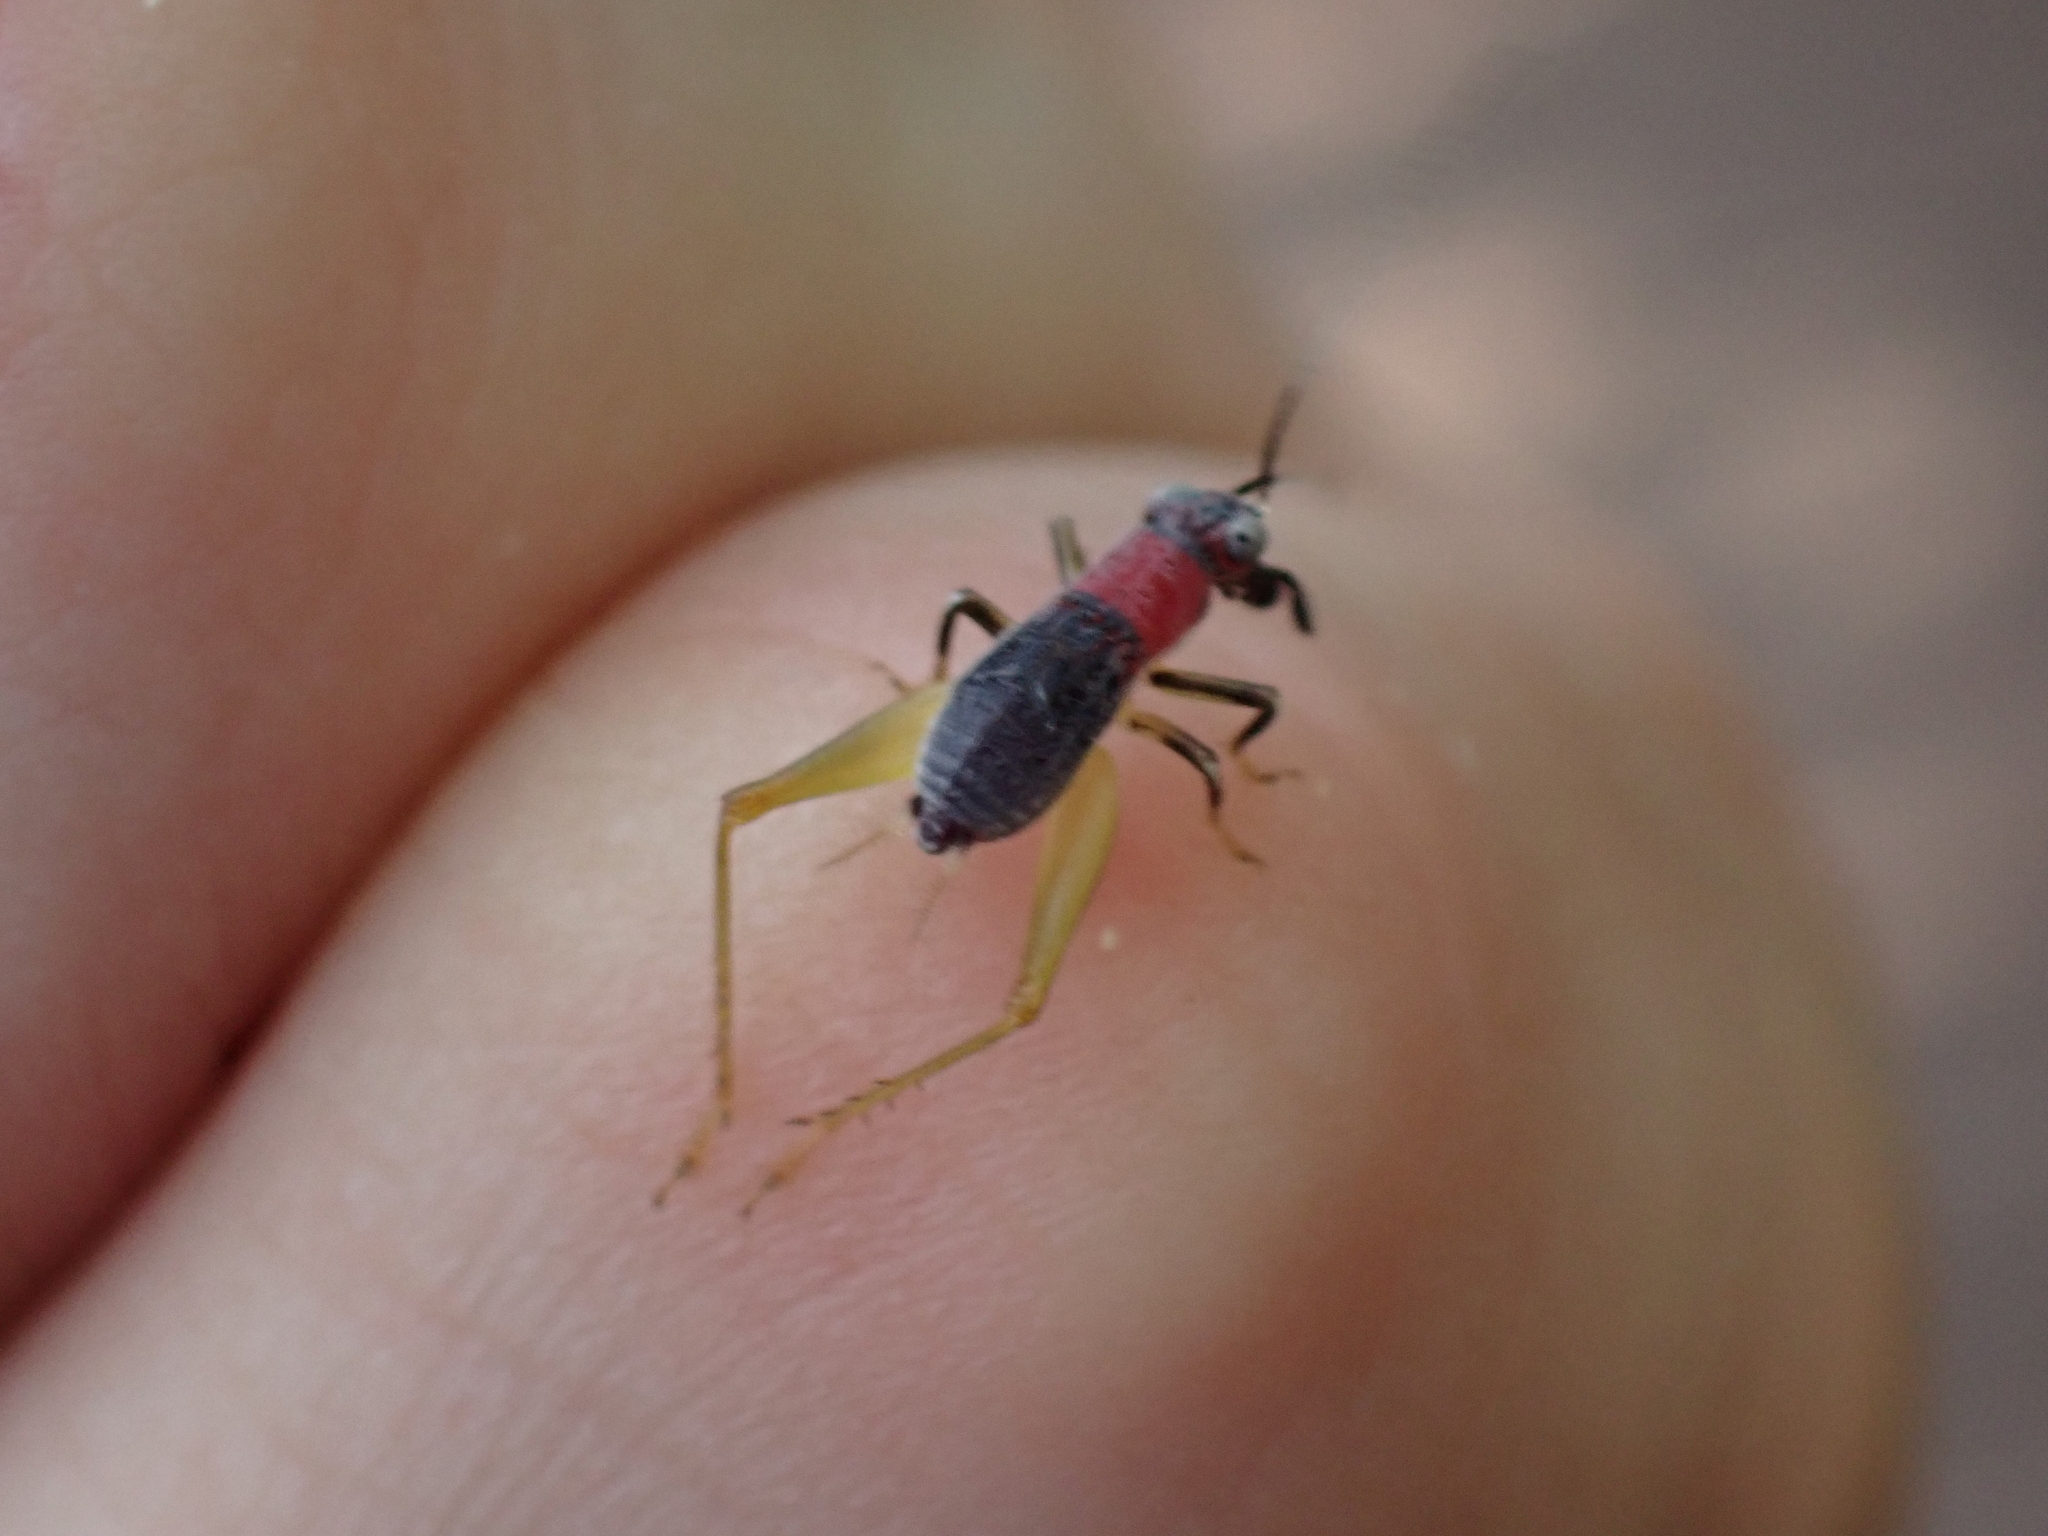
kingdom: Animalia
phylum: Arthropoda
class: Insecta
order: Orthoptera
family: Trigonidiidae
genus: Phyllopalpus
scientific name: Phyllopalpus pulchellus
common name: Handsome trig
